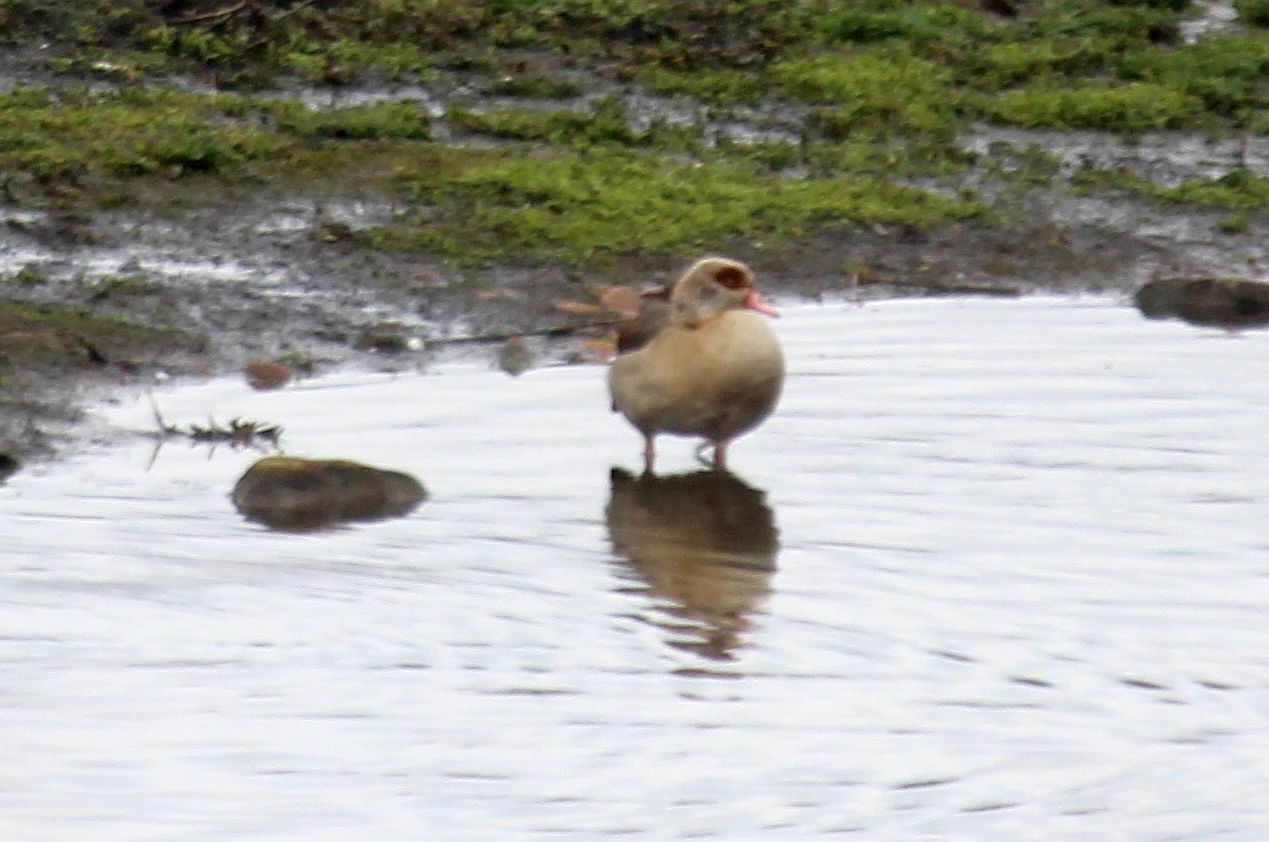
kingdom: Animalia
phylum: Chordata
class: Aves
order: Anseriformes
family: Anatidae
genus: Alopochen
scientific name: Alopochen aegyptiaca
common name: Egyptian goose
